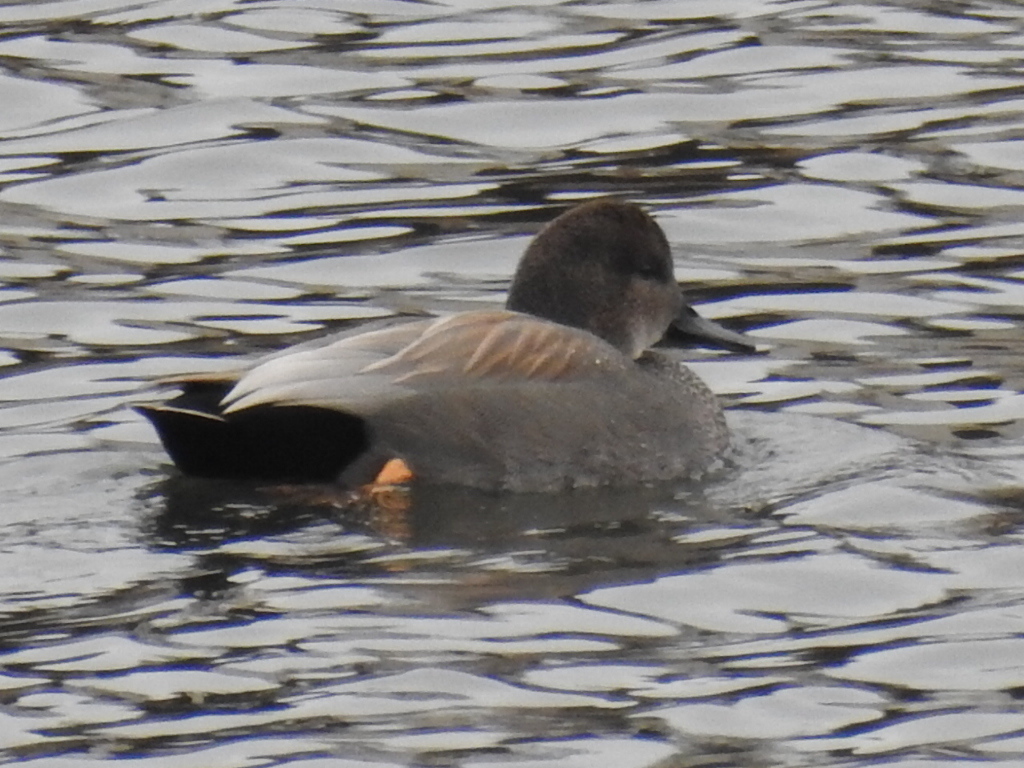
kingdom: Animalia
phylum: Chordata
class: Aves
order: Anseriformes
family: Anatidae
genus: Mareca
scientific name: Mareca strepera
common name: Gadwall
